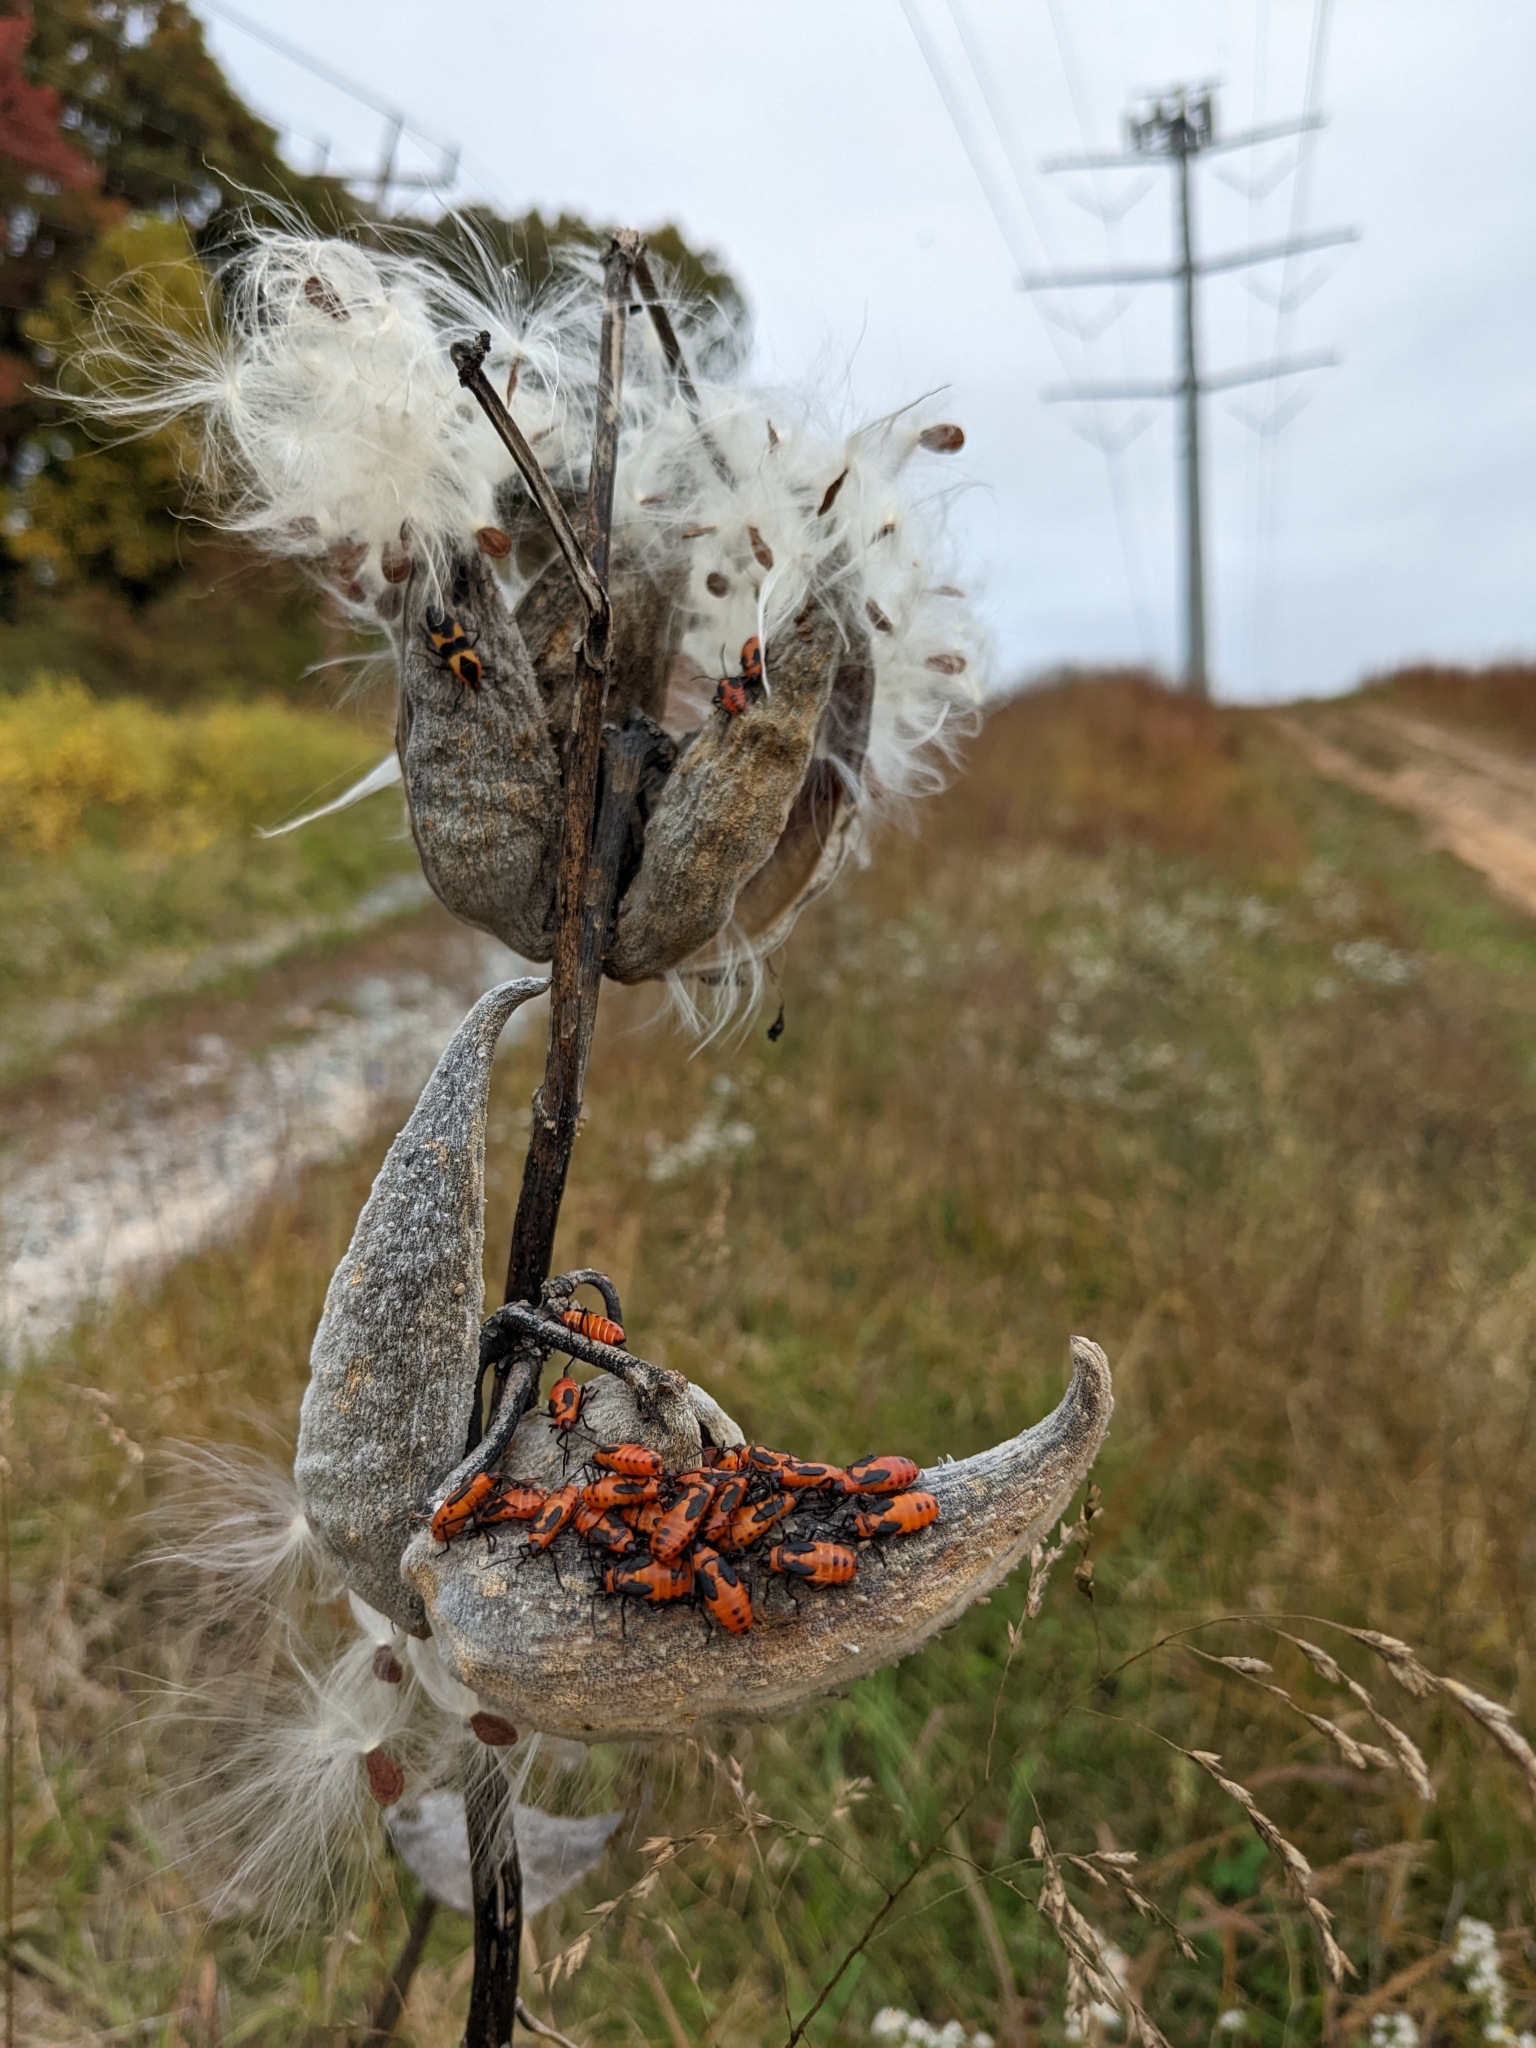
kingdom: Animalia
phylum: Arthropoda
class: Insecta
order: Hemiptera
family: Lygaeidae
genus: Oncopeltus
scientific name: Oncopeltus fasciatus
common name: Large milkweed bug
